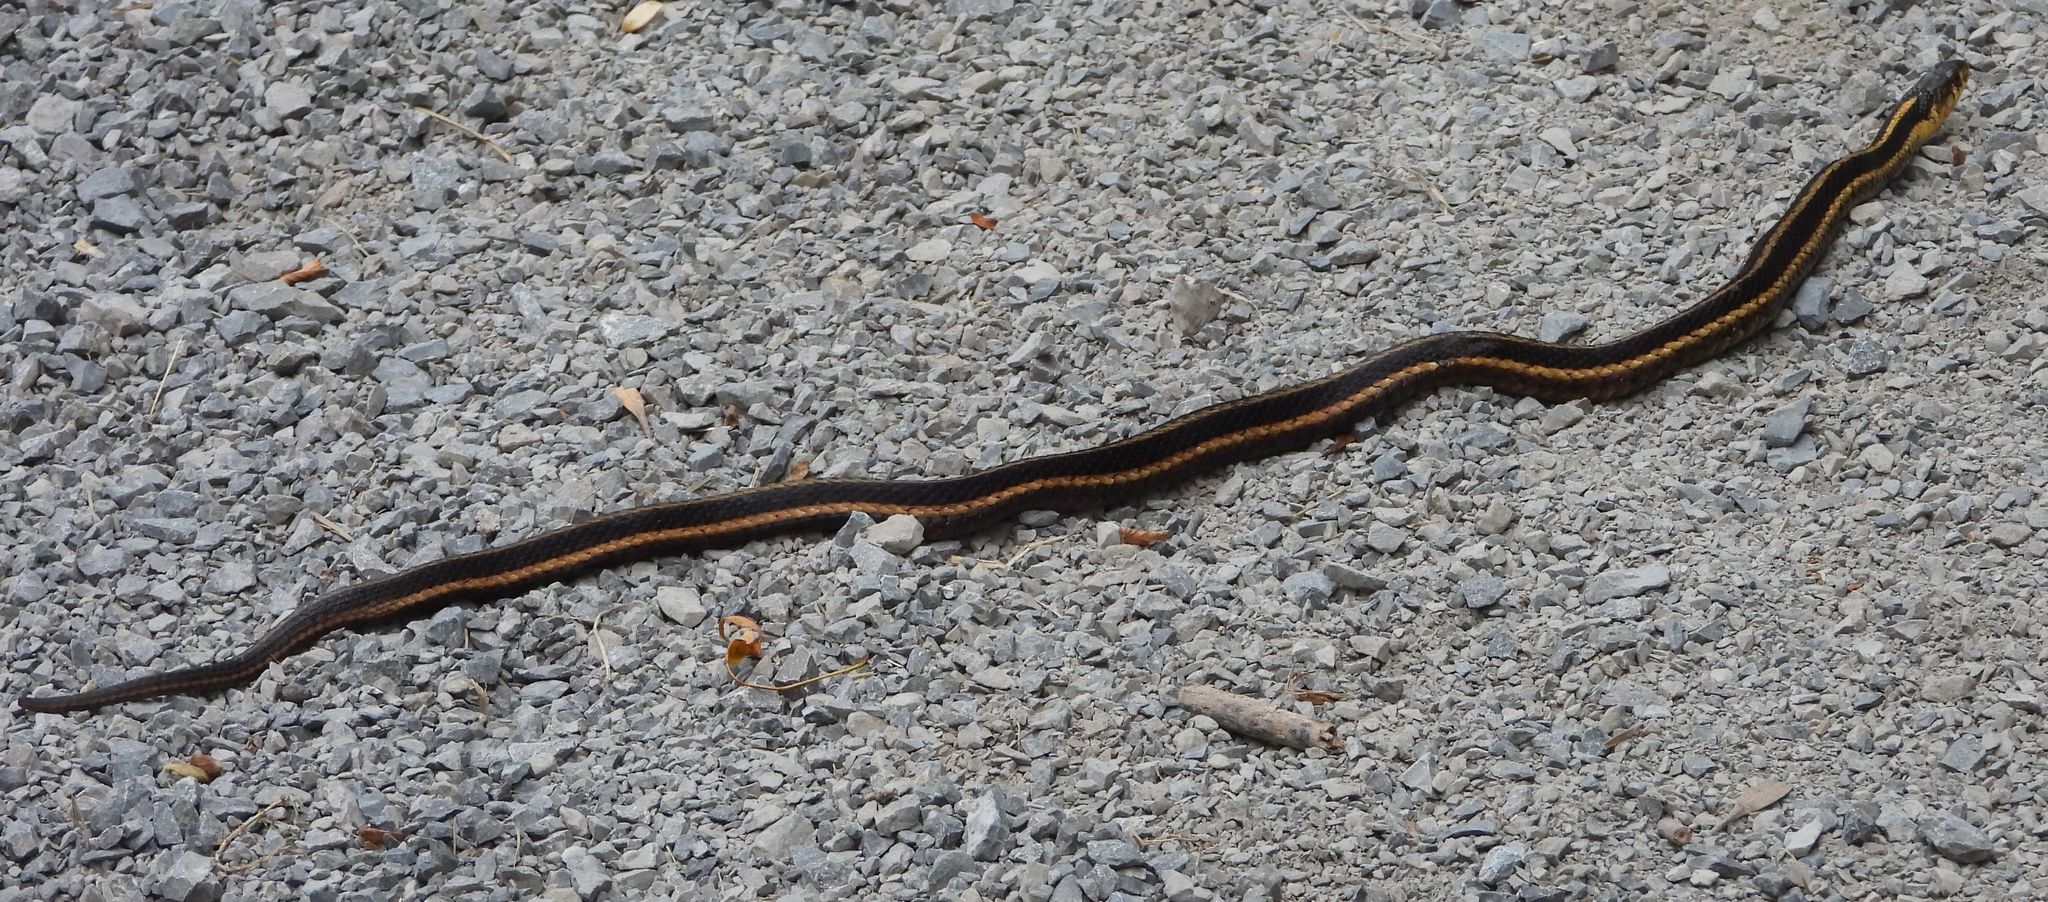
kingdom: Animalia
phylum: Chordata
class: Squamata
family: Colubridae
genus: Thamnophis
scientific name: Thamnophis sirtalis
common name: Common garter snake
